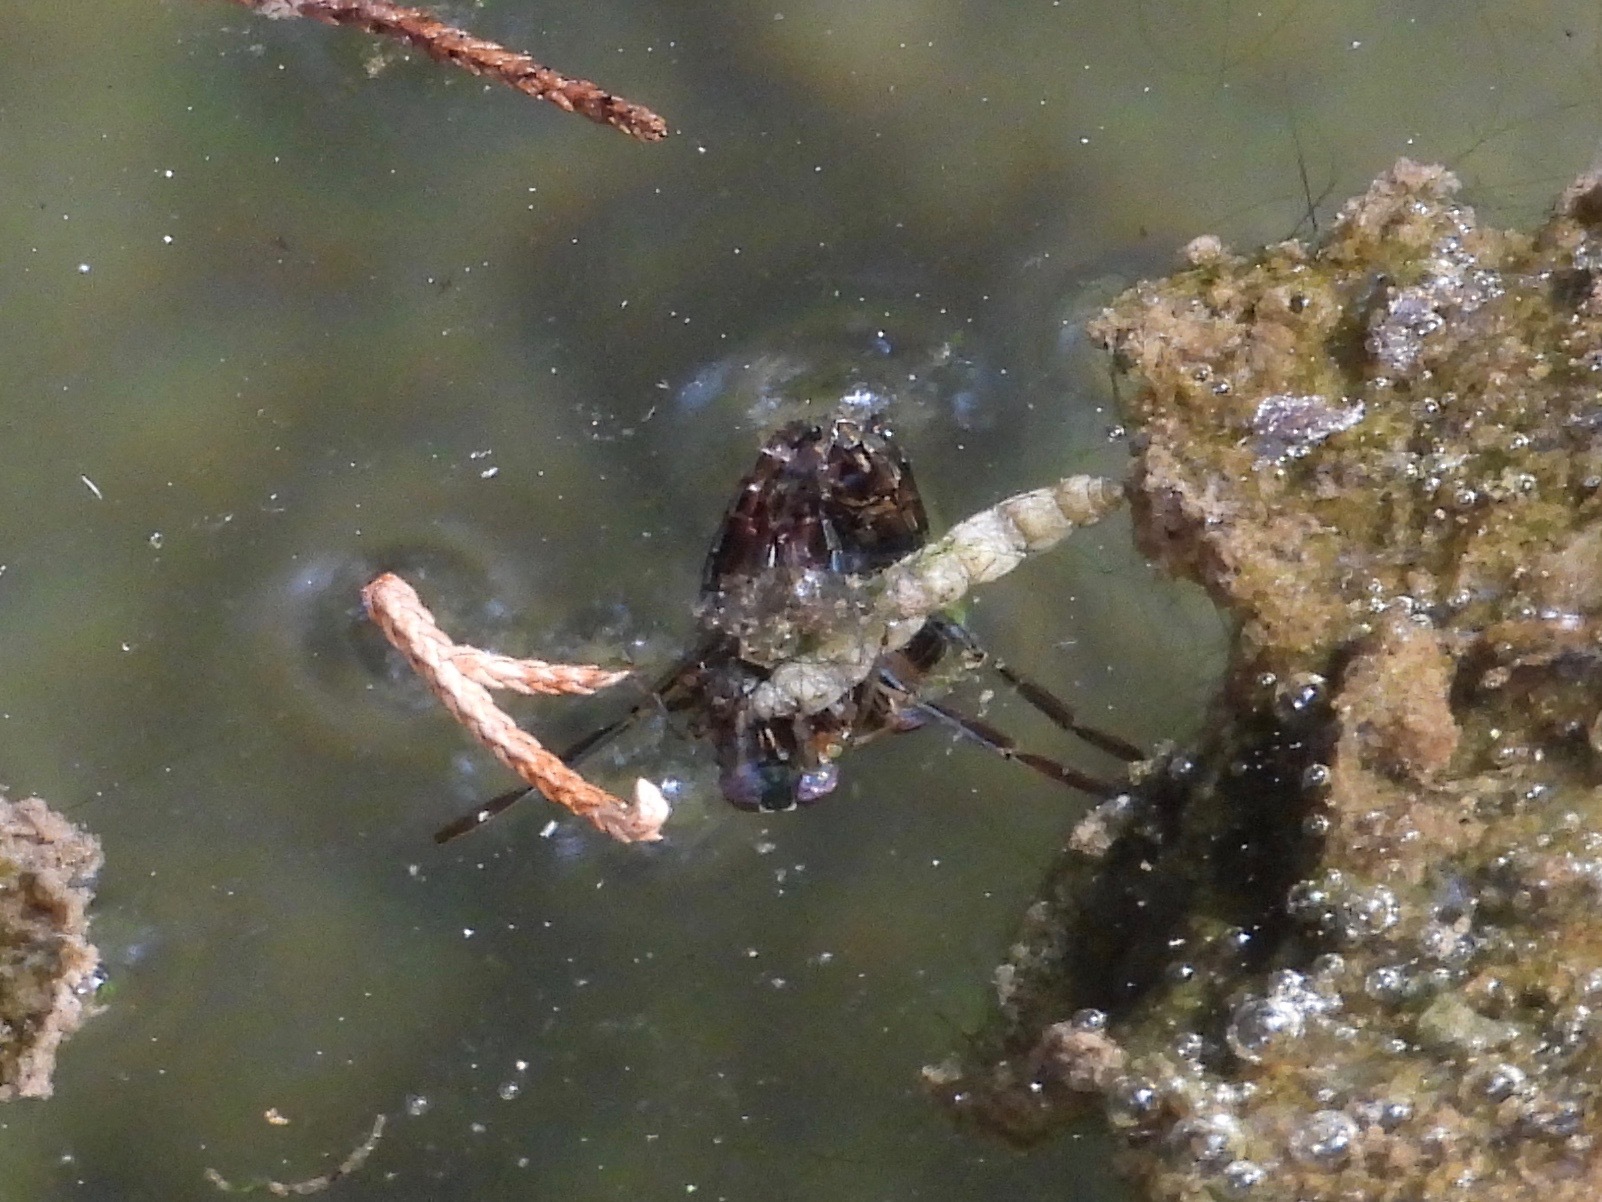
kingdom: Animalia
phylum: Arthropoda
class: Insecta
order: Hemiptera
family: Notonectidae
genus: Notonecta
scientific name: Notonecta
